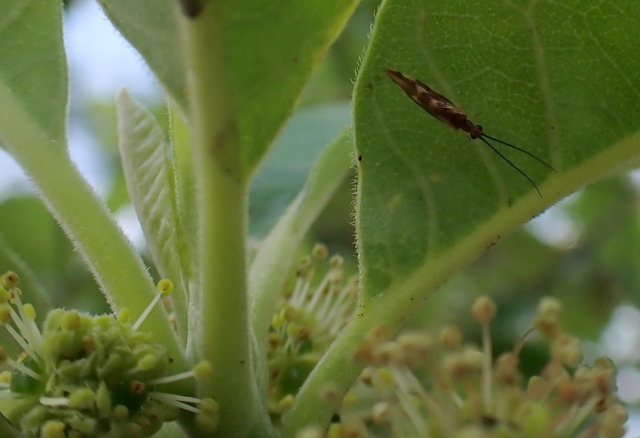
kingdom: Animalia
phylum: Arthropoda
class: Insecta
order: Neuroptera
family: Sisyridae
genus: Climacia
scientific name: Climacia areolaris
